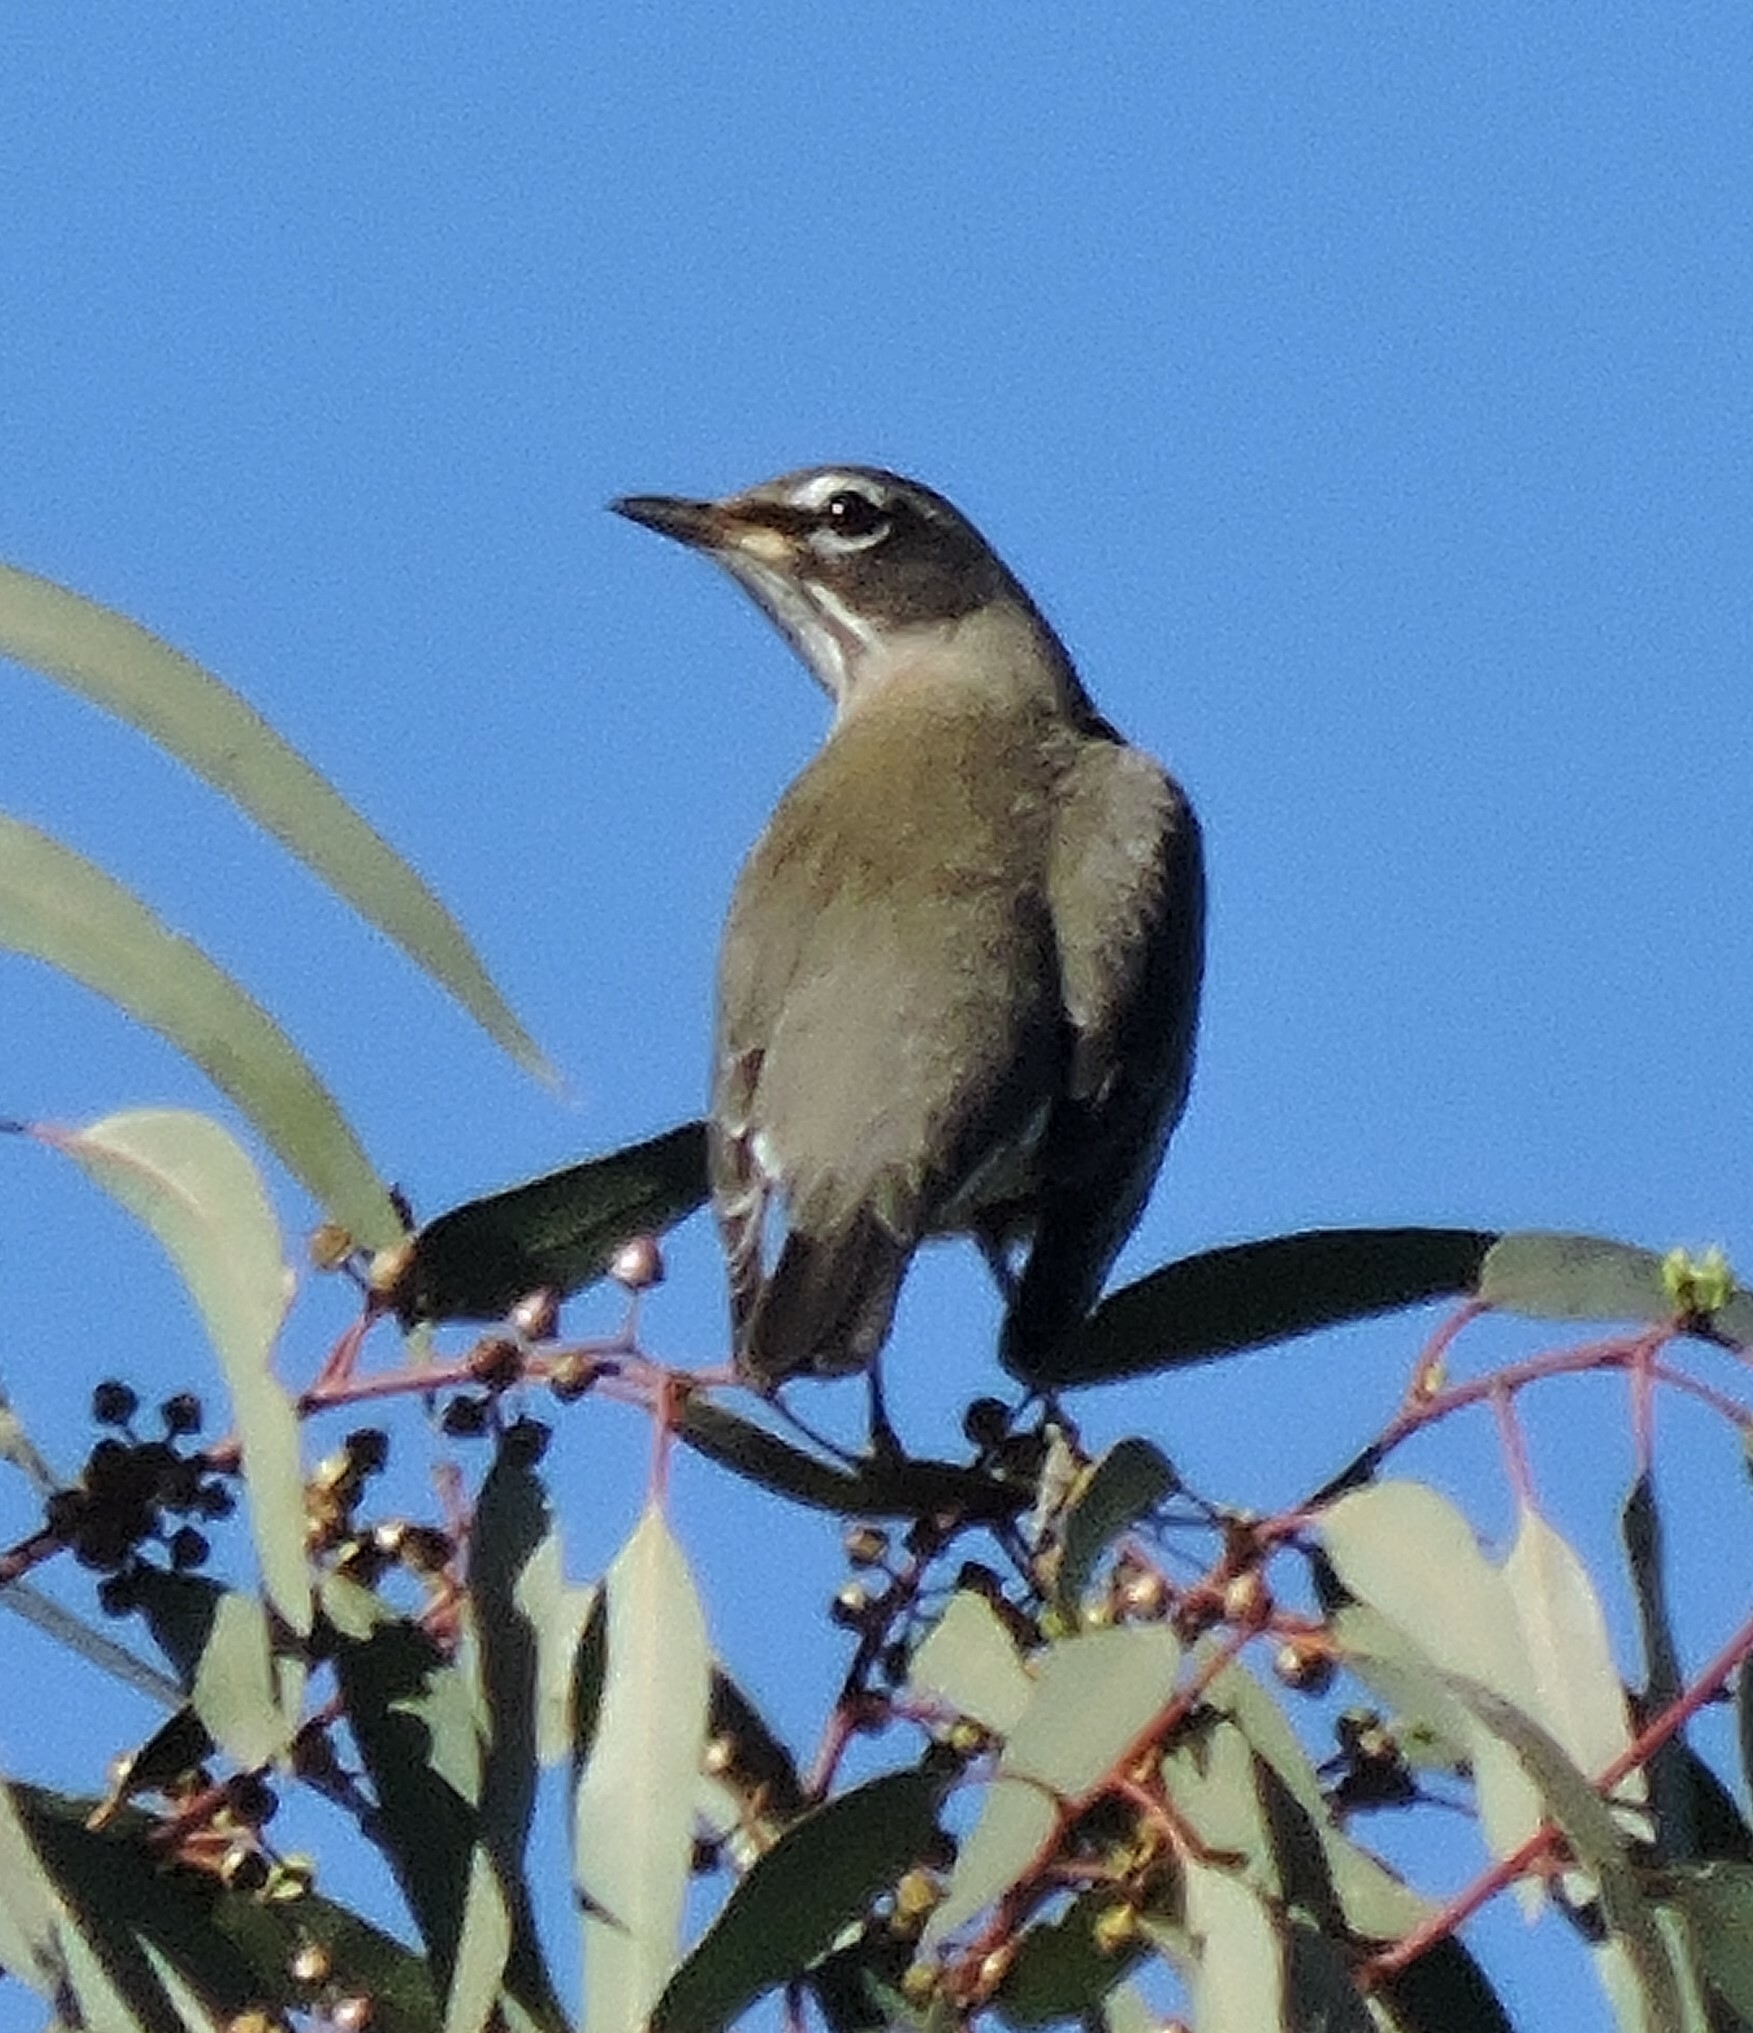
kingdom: Animalia
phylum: Chordata
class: Aves
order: Passeriformes
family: Turdidae
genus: Turdus
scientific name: Turdus migratorius
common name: American robin
